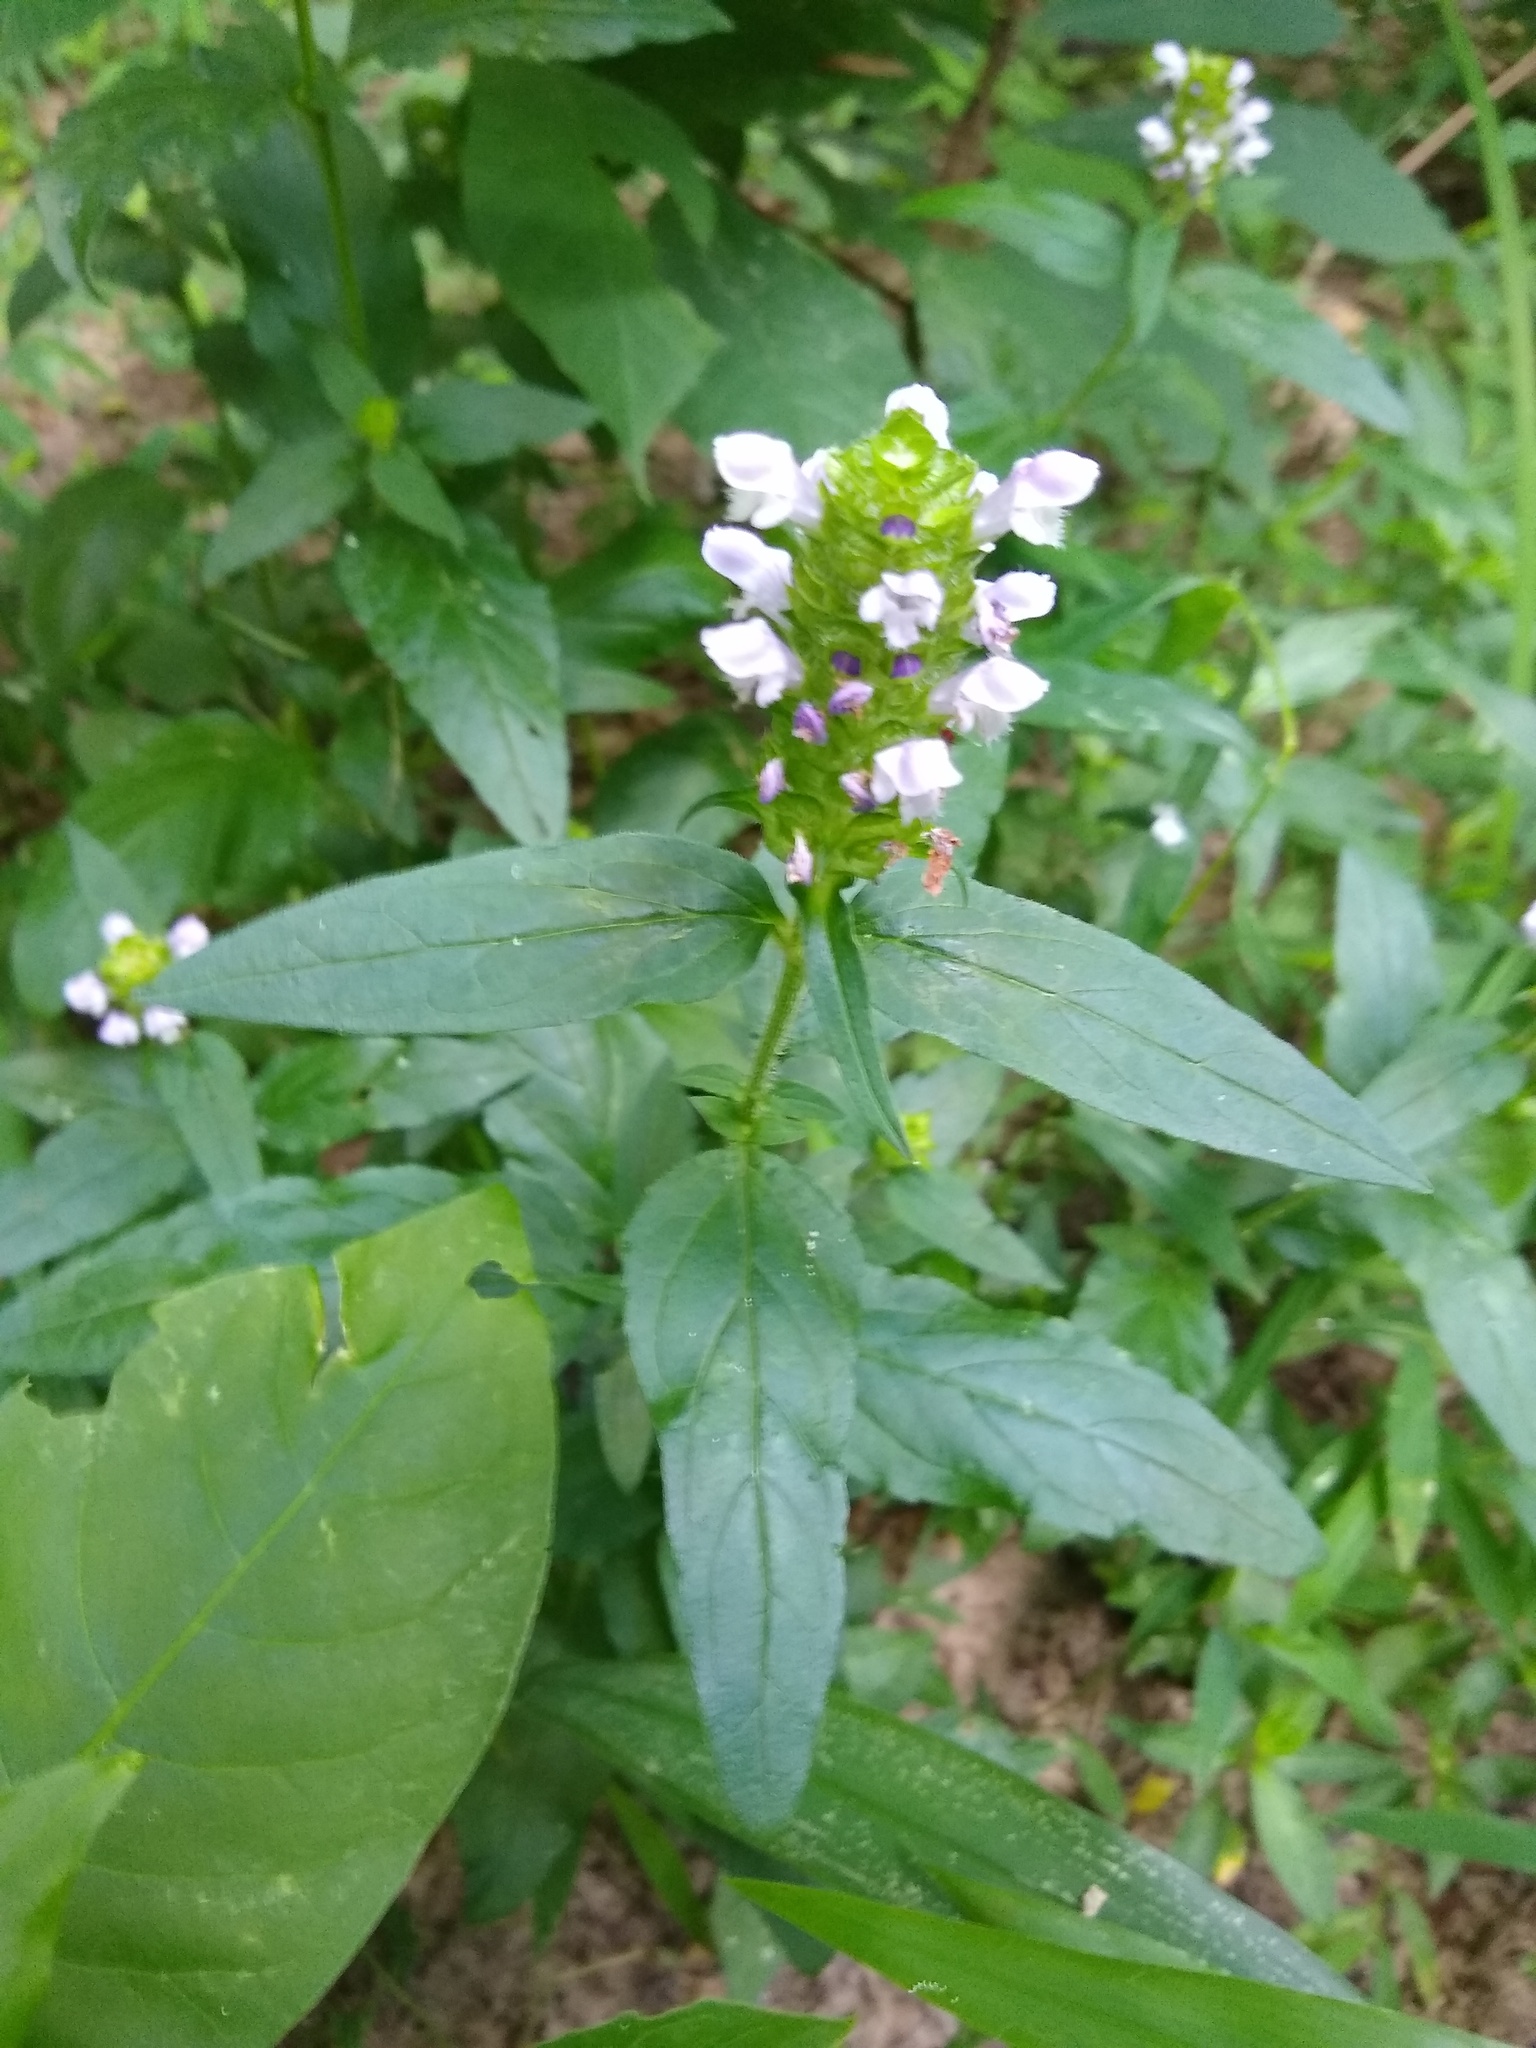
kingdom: Plantae
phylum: Tracheophyta
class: Magnoliopsida
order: Lamiales
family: Lamiaceae
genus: Prunella
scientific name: Prunella vulgaris
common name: Heal-all
